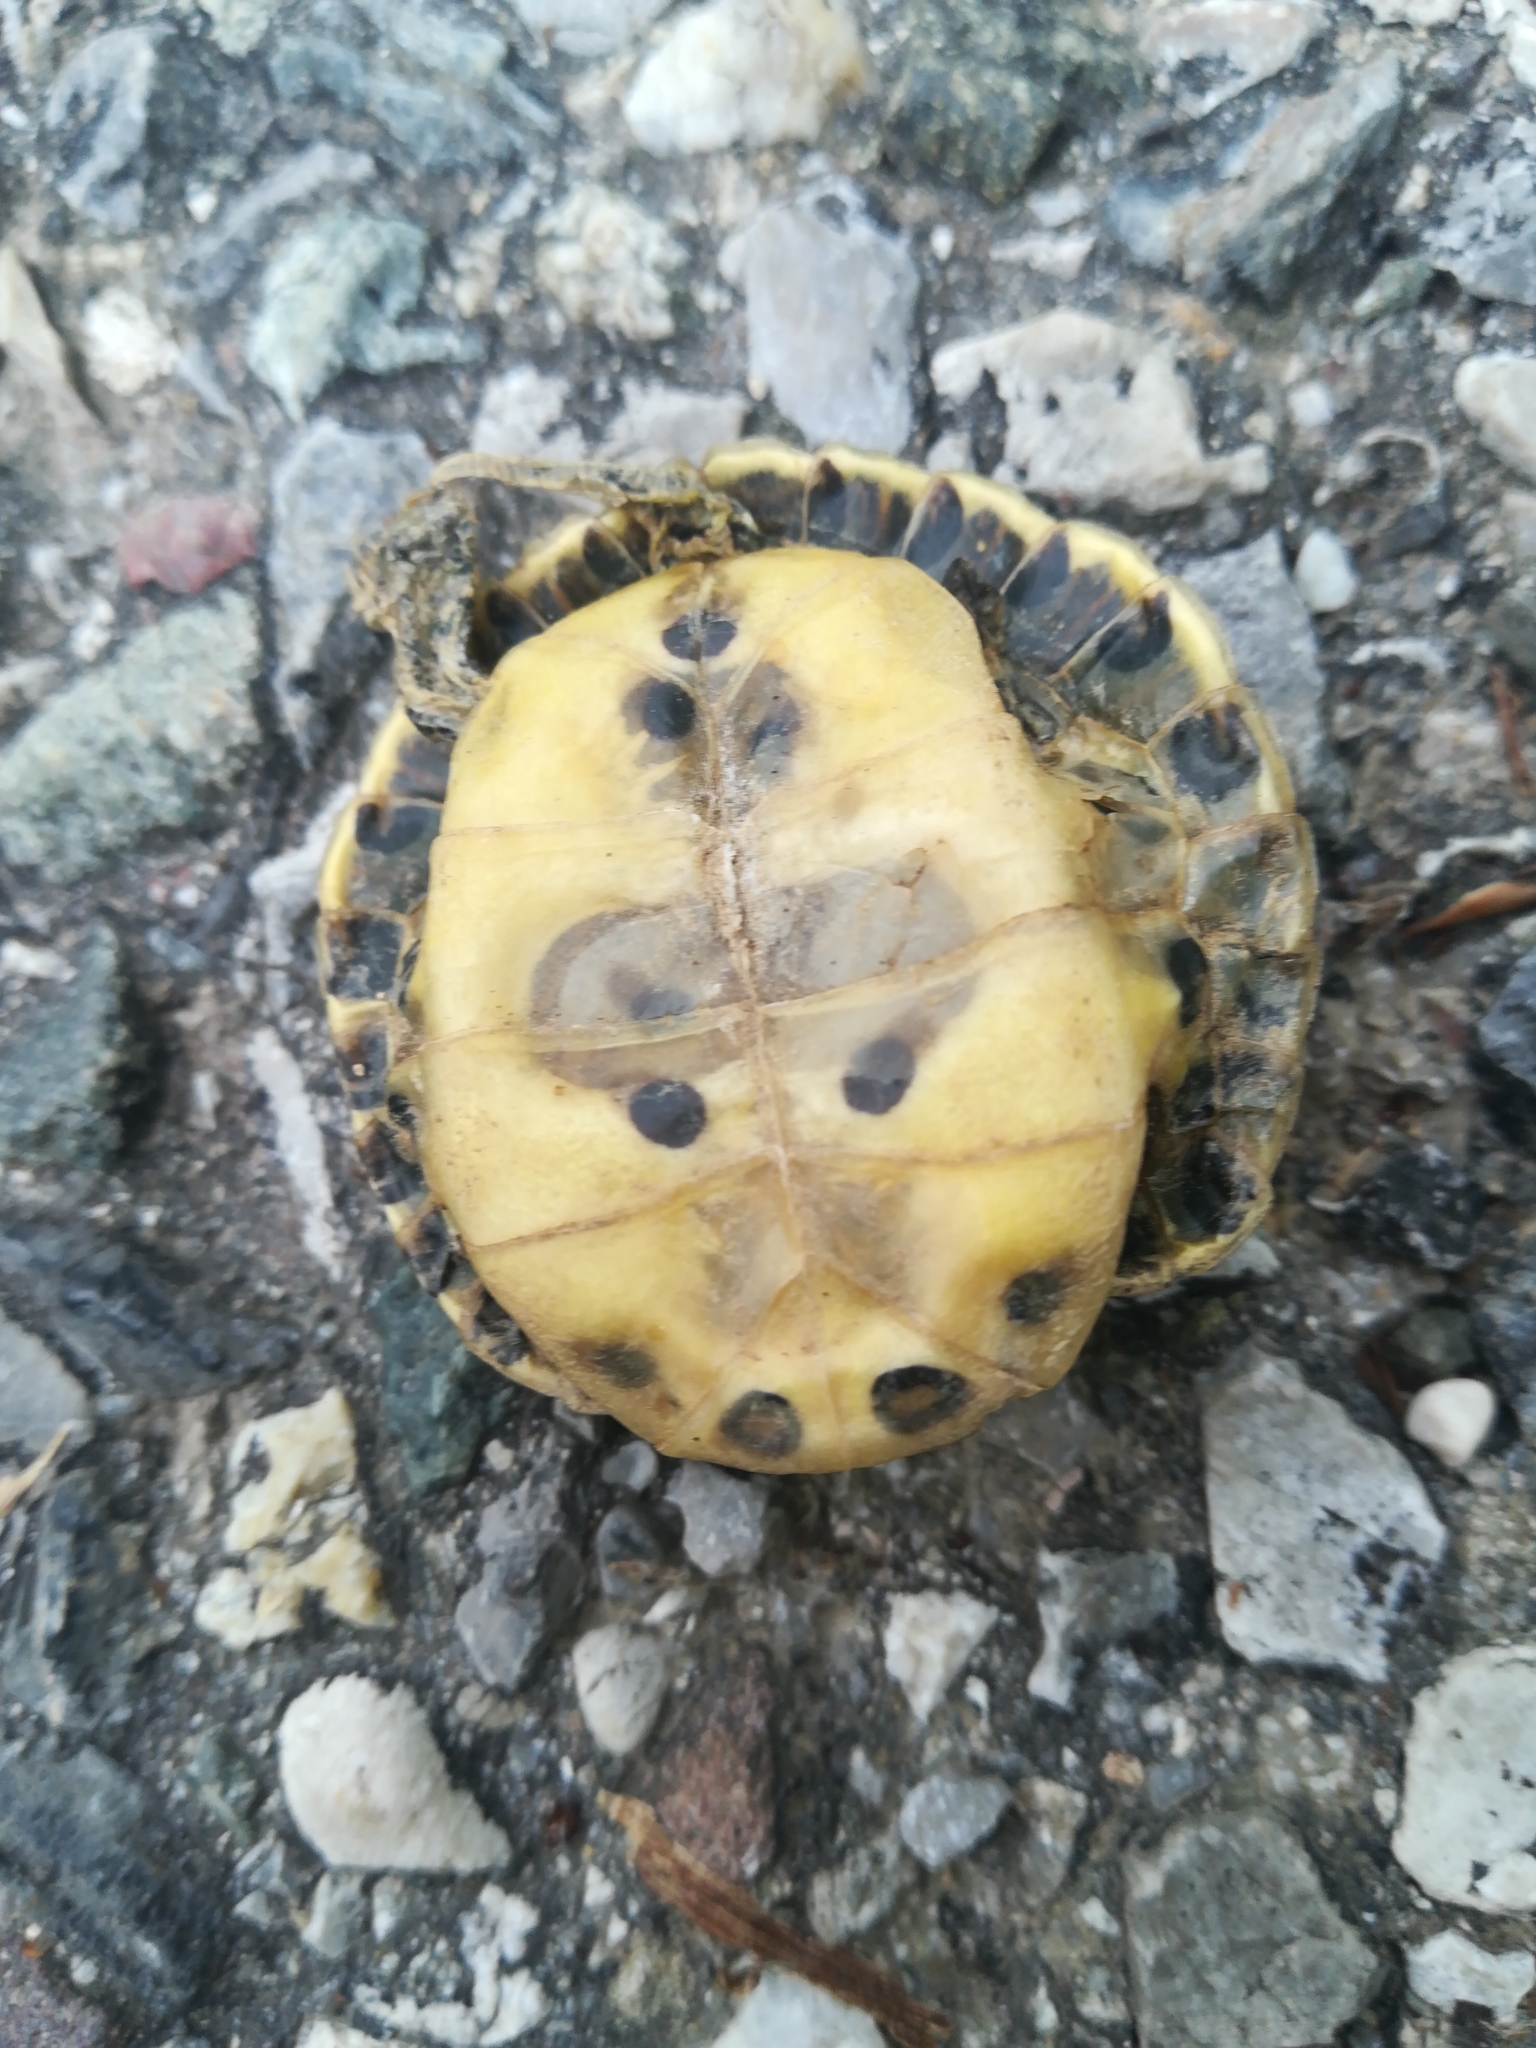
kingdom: Animalia
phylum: Chordata
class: Testudines
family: Emydidae
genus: Trachemys
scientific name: Trachemys scripta
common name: Slider
